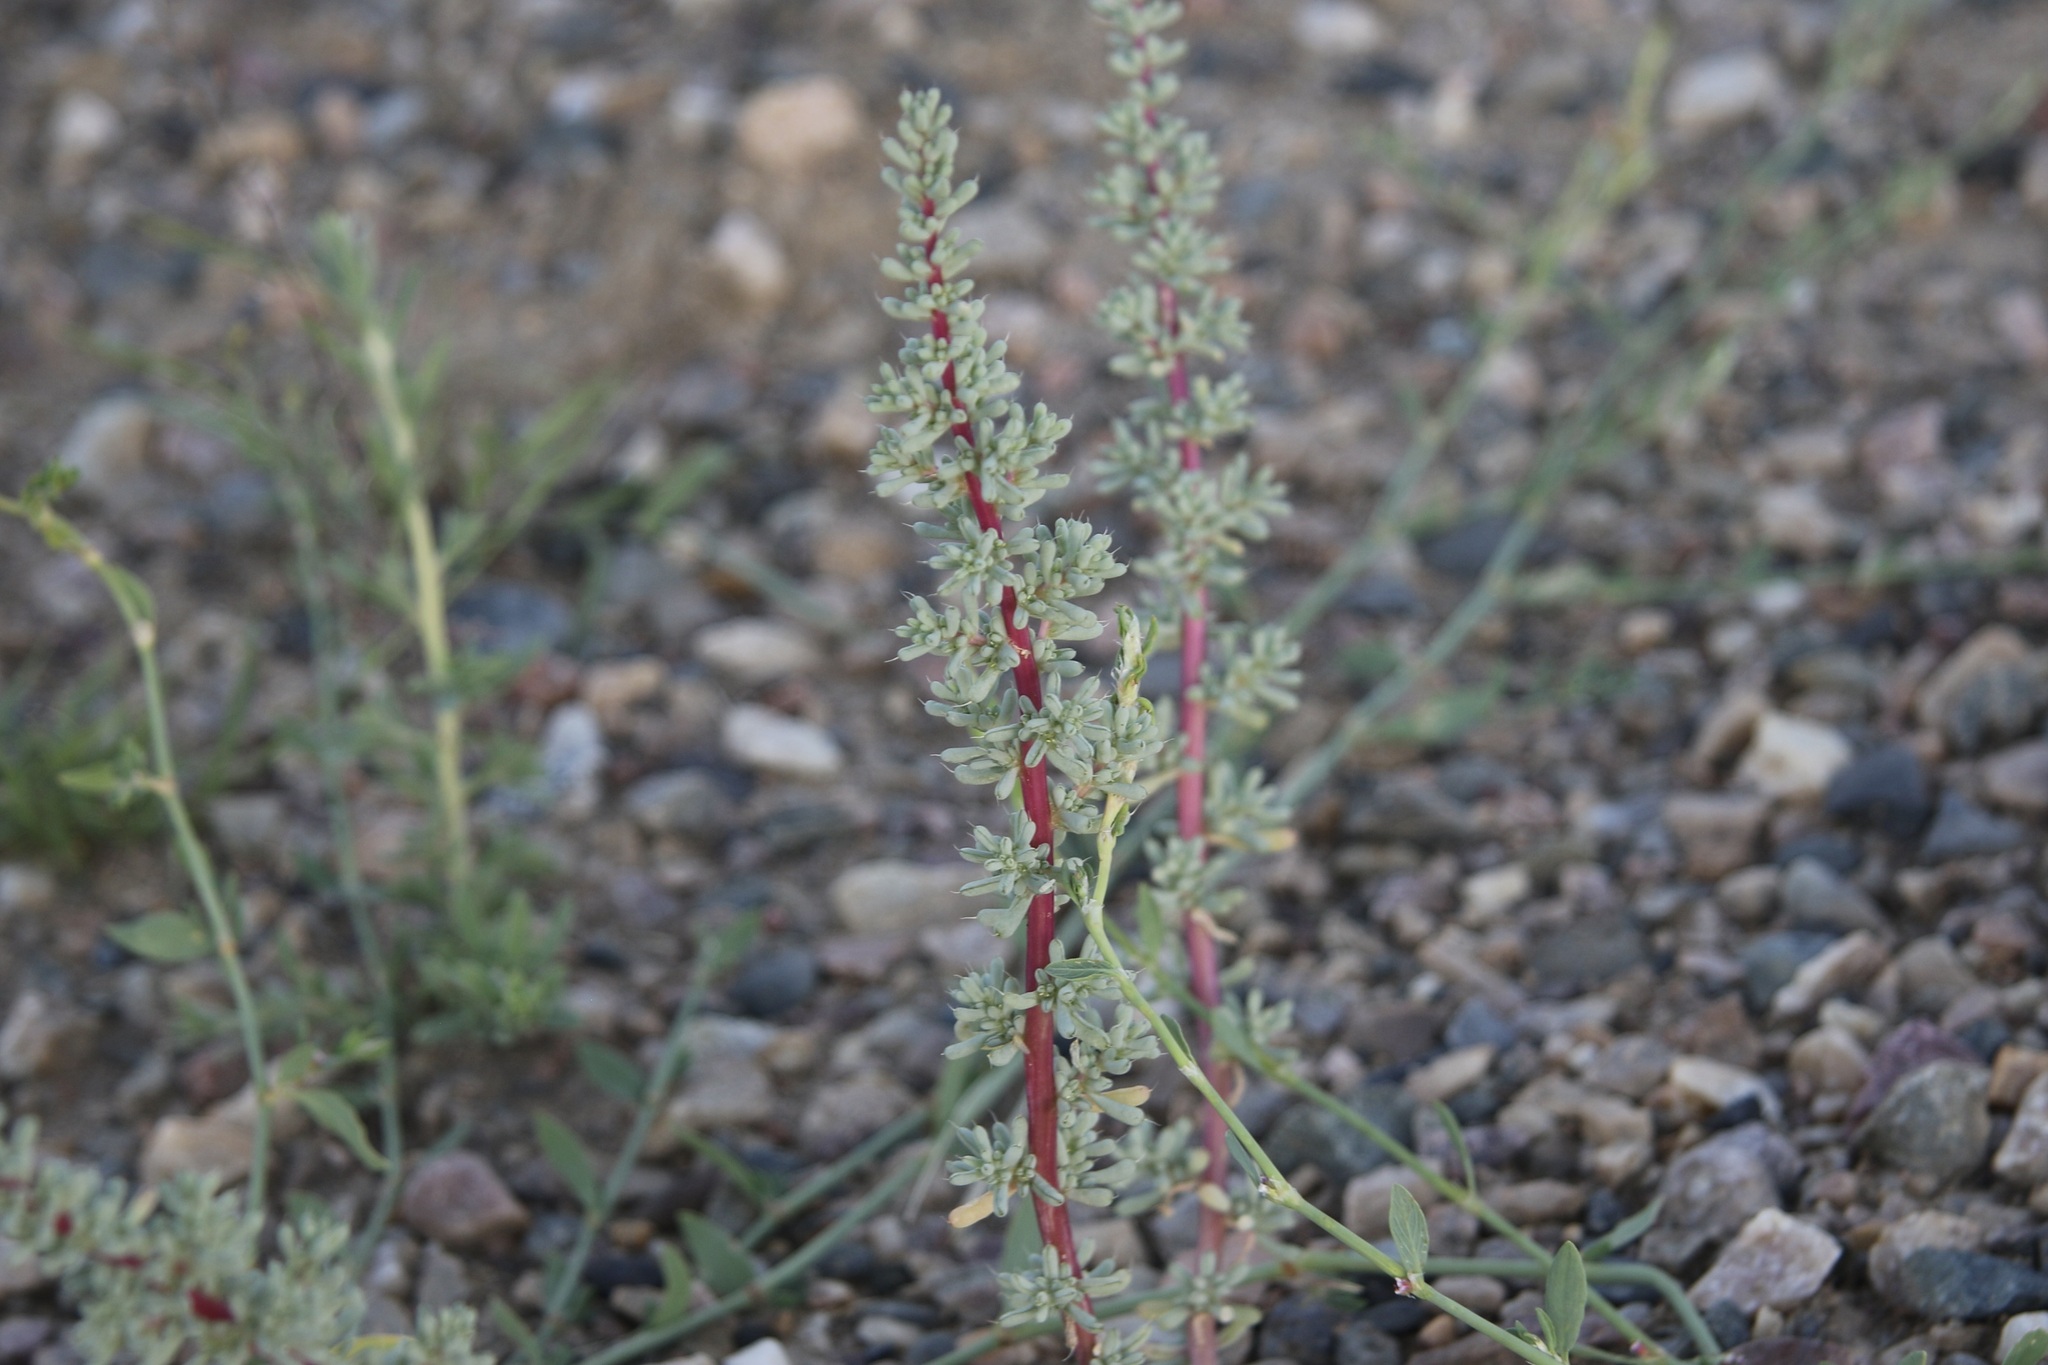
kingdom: Plantae
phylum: Tracheophyta
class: Magnoliopsida
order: Caryophyllales
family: Amaranthaceae
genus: Halogeton
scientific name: Halogeton glomeratus
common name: Saltlover
